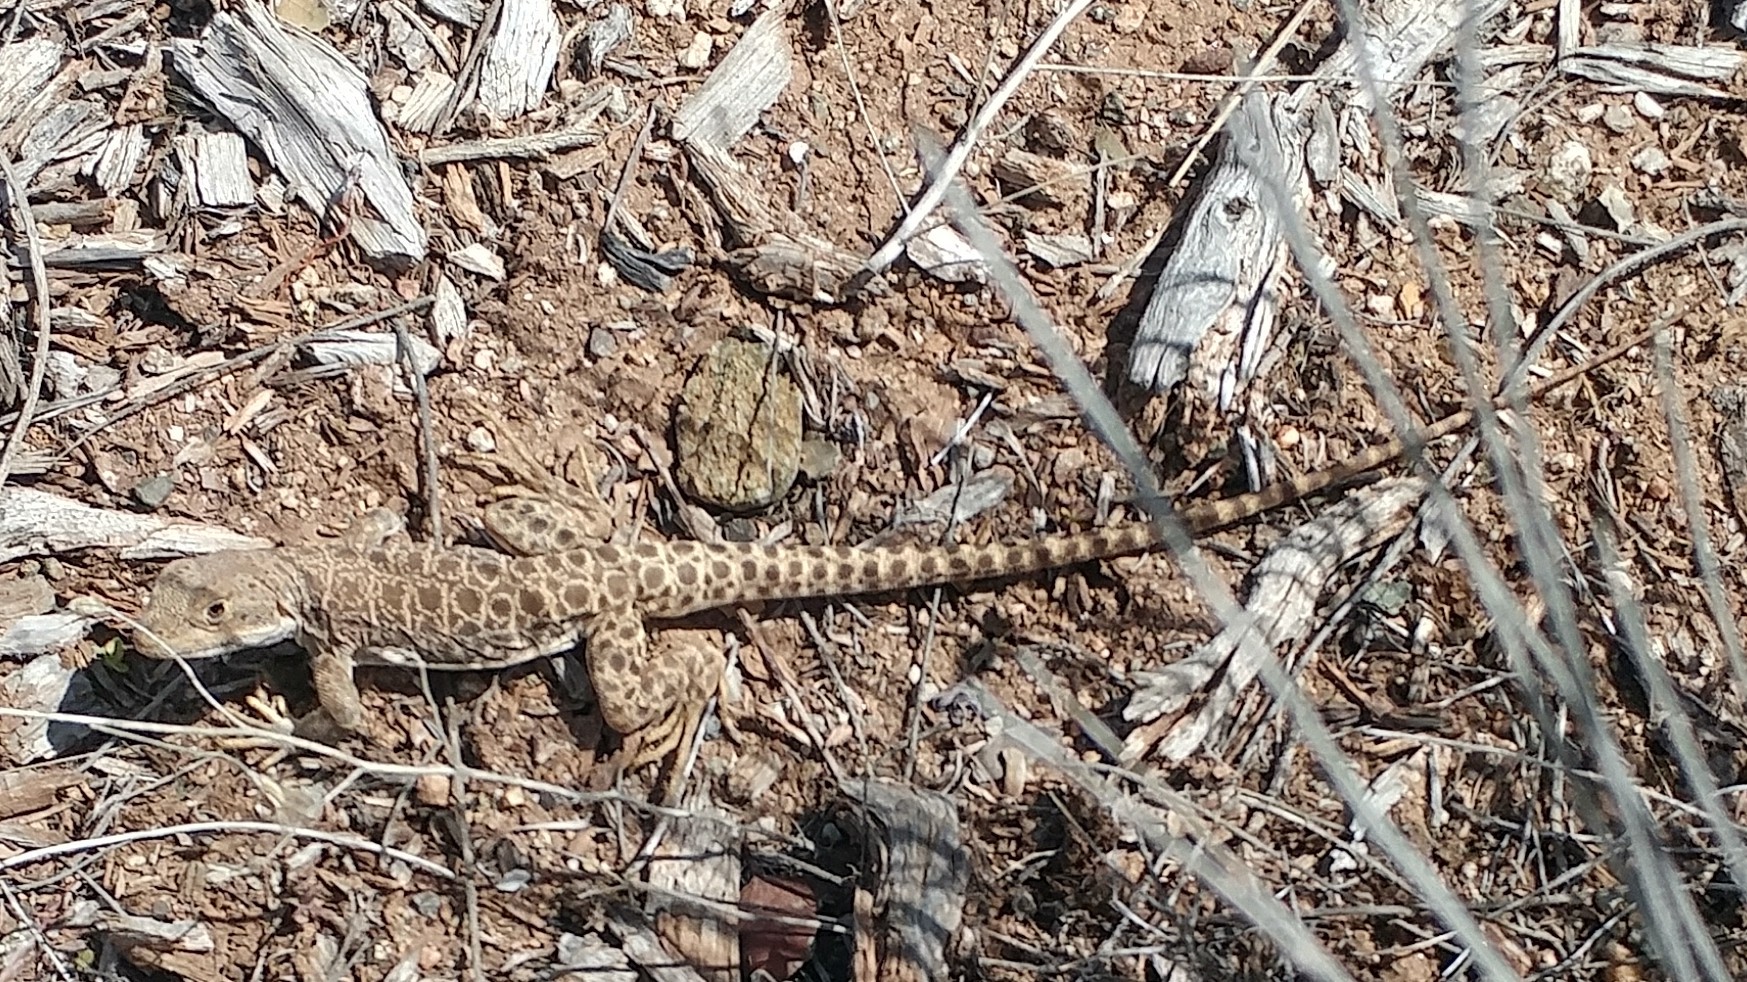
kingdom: Animalia
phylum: Chordata
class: Squamata
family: Crotaphytidae
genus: Gambelia
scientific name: Gambelia wislizenii
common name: Longnose leopard lizard
